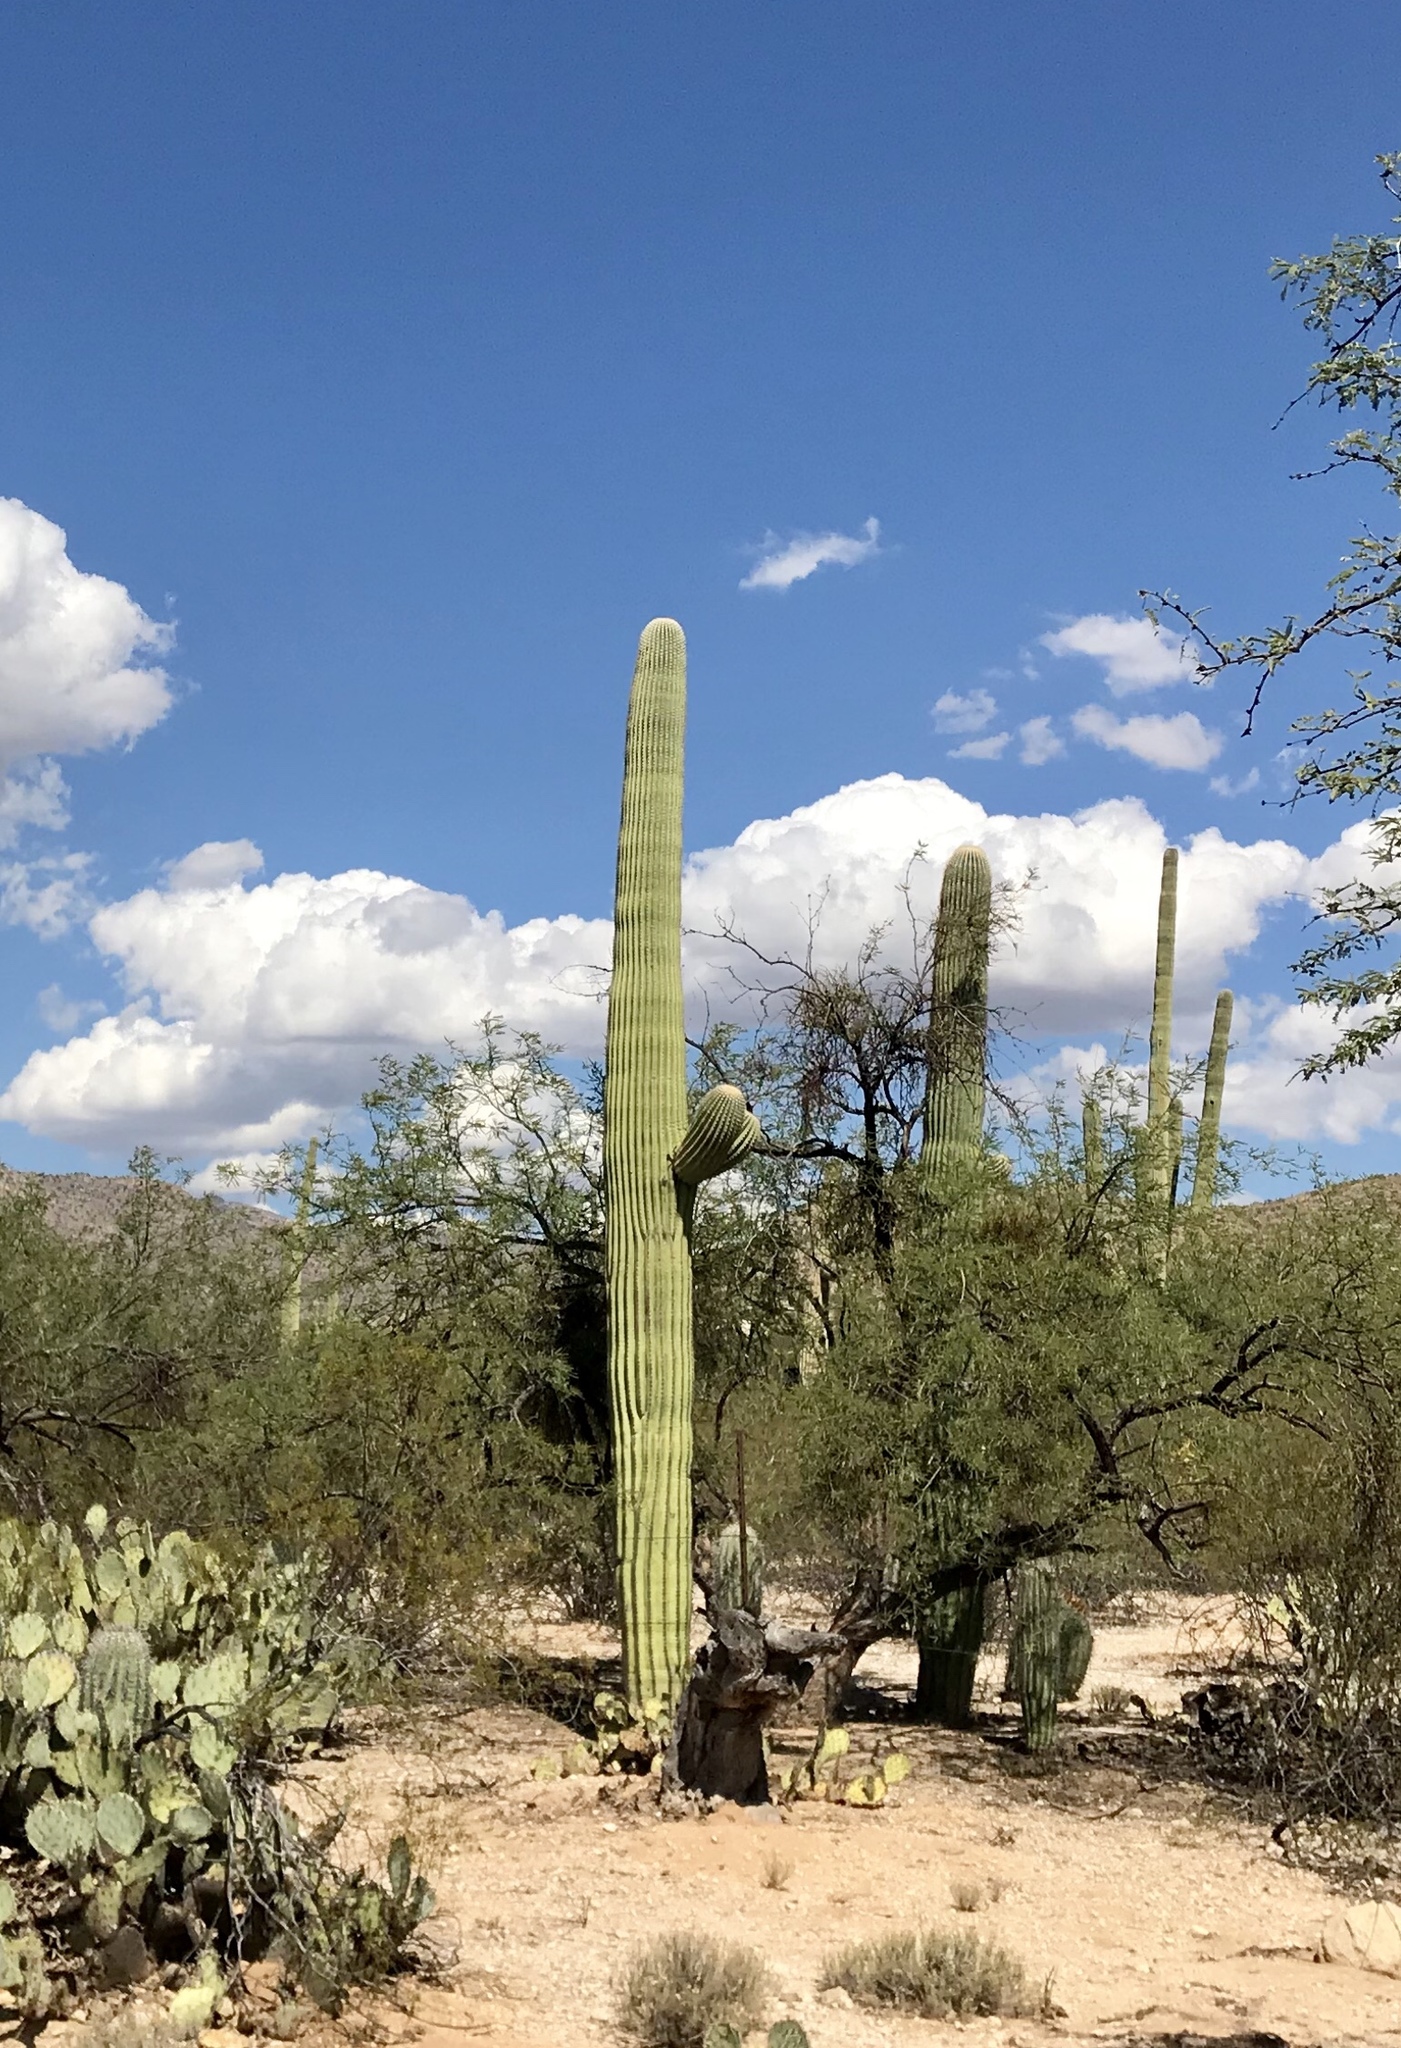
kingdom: Plantae
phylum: Tracheophyta
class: Magnoliopsida
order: Caryophyllales
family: Cactaceae
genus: Carnegiea
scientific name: Carnegiea gigantea
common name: Saguaro
